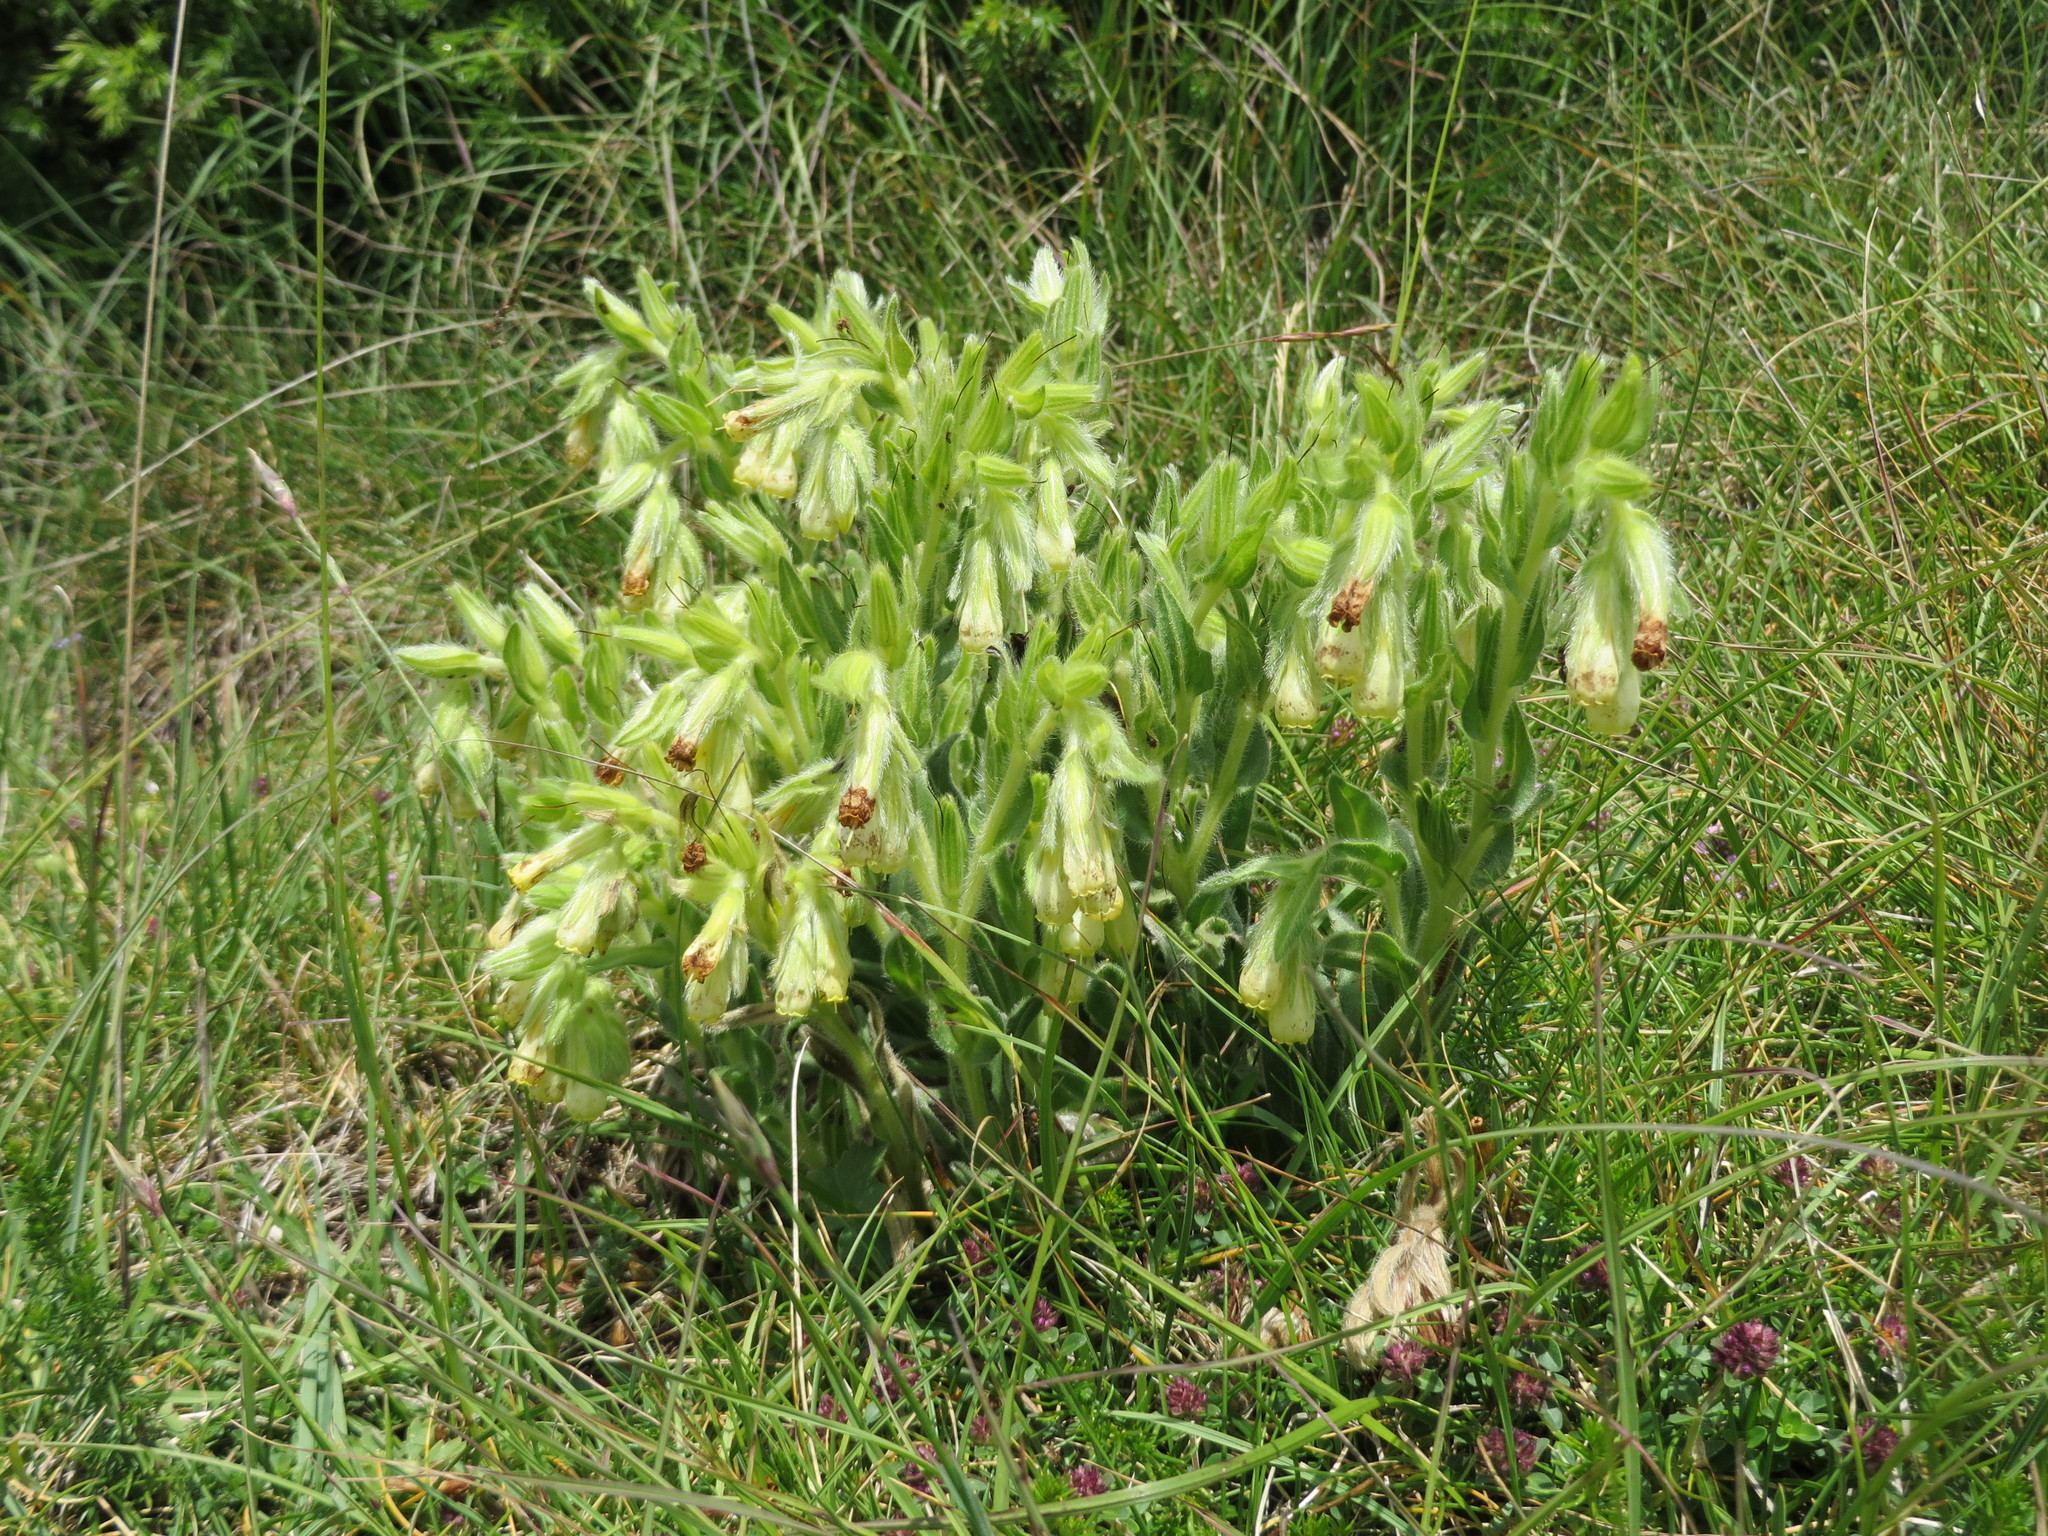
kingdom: Plantae
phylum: Tracheophyta
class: Magnoliopsida
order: Boraginales
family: Boraginaceae
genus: Onosma
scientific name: Onosma tricerosperma
